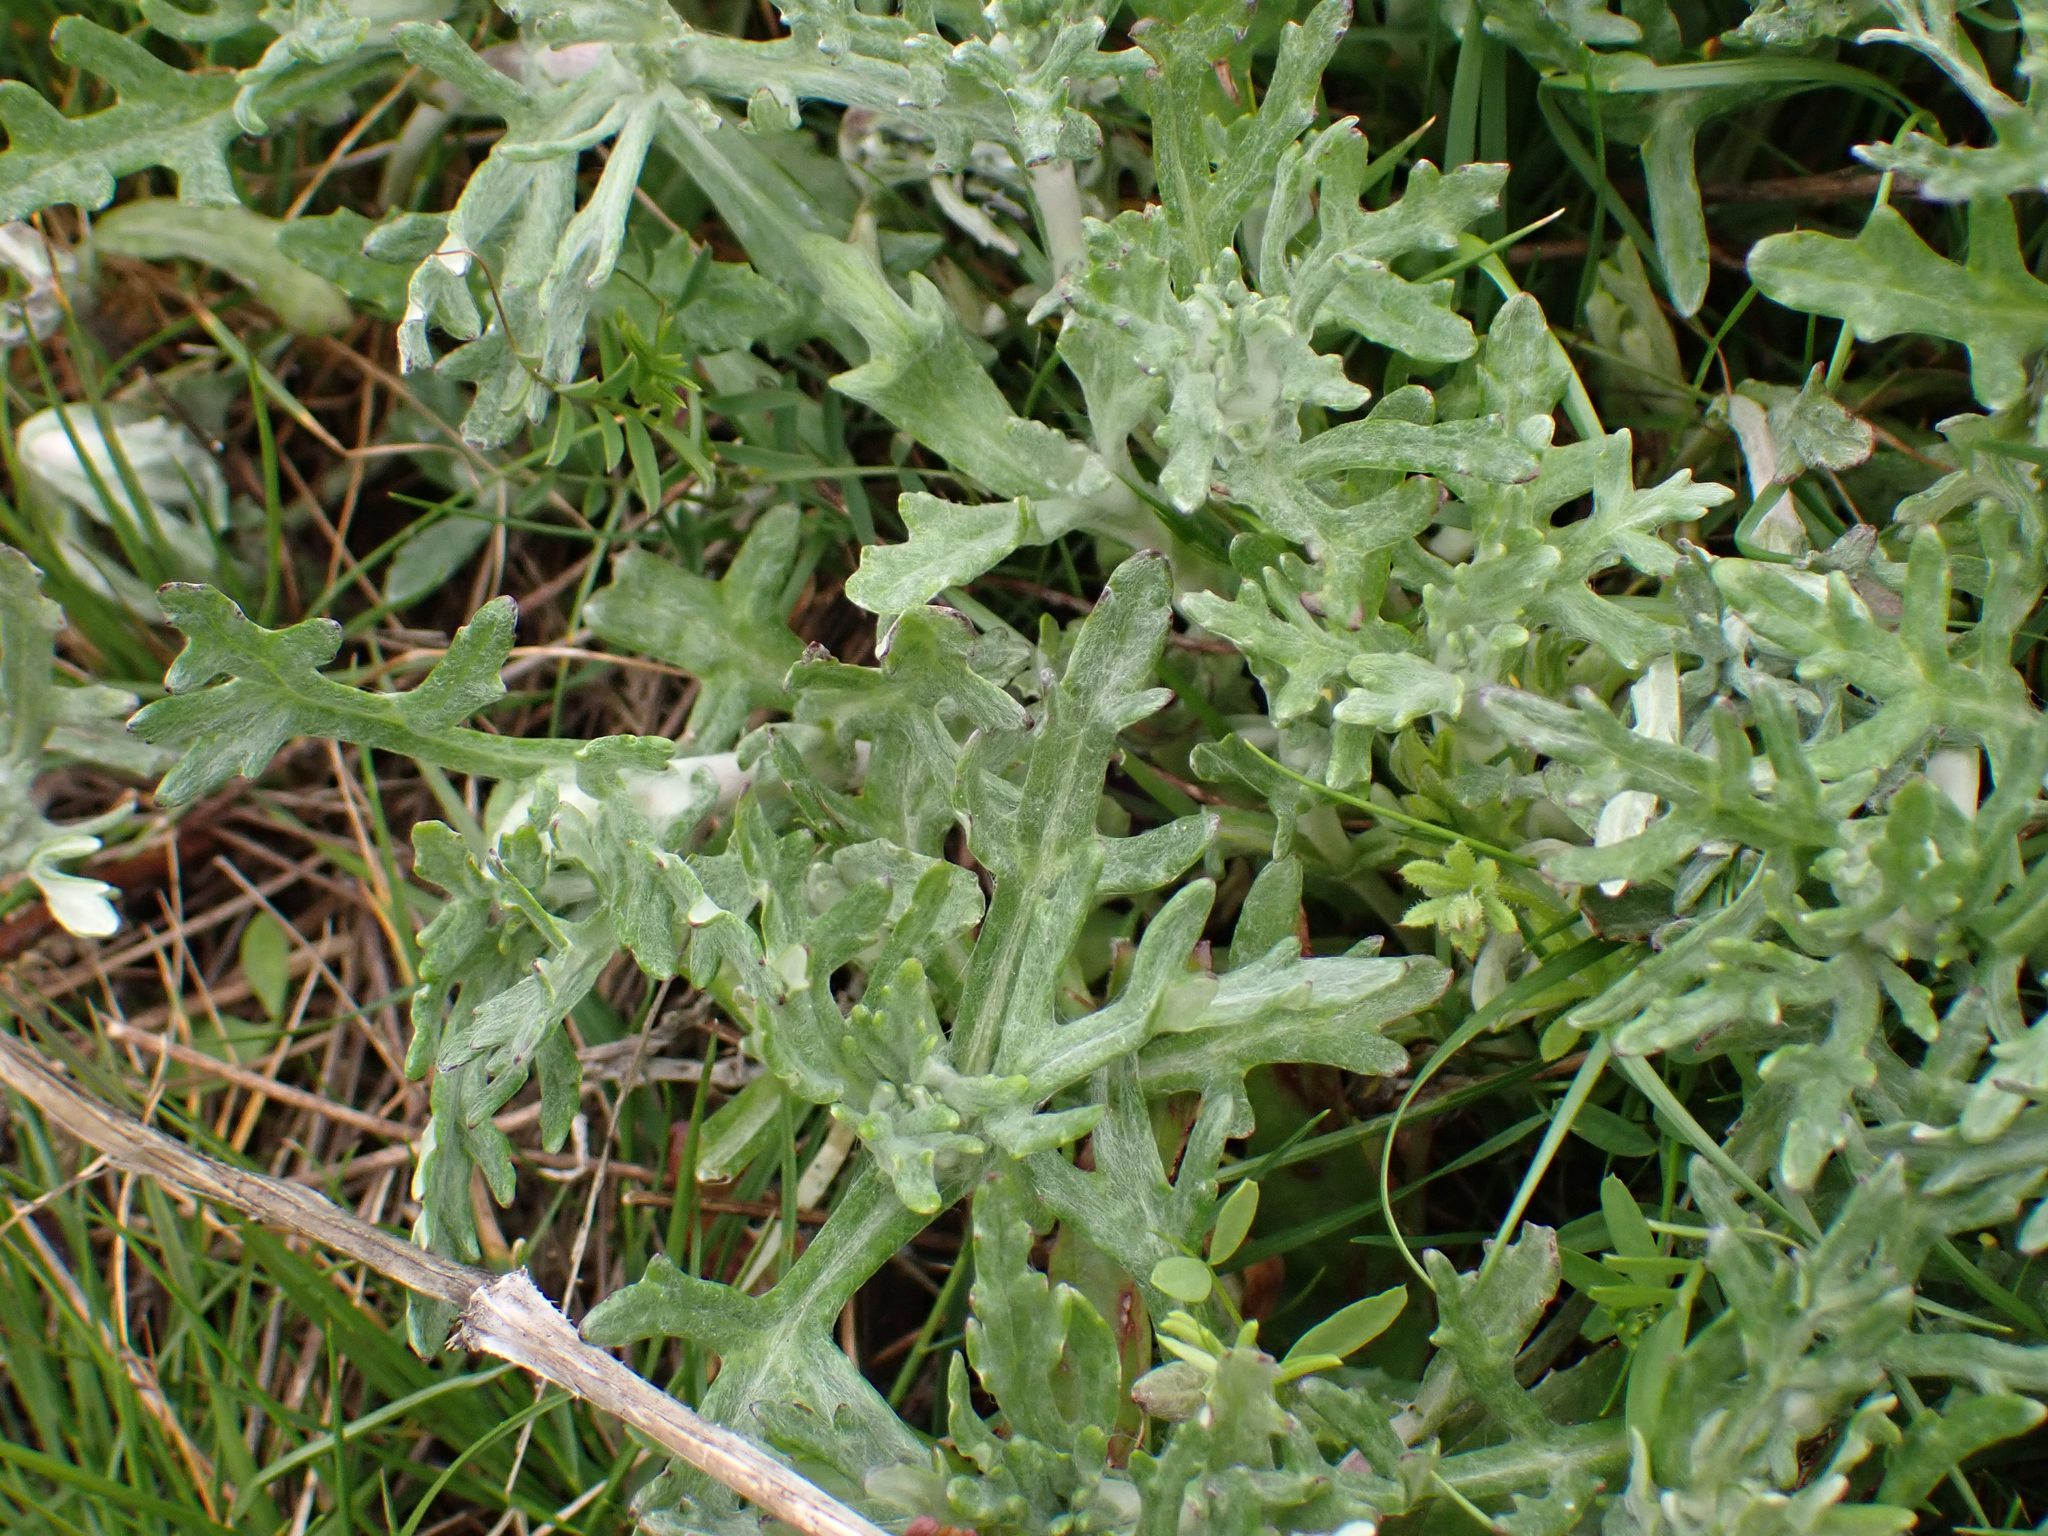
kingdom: Plantae
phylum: Tracheophyta
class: Magnoliopsida
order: Asterales
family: Asteraceae
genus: Eriophyllum
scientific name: Eriophyllum lanatum
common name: Common woolly-sunflower
